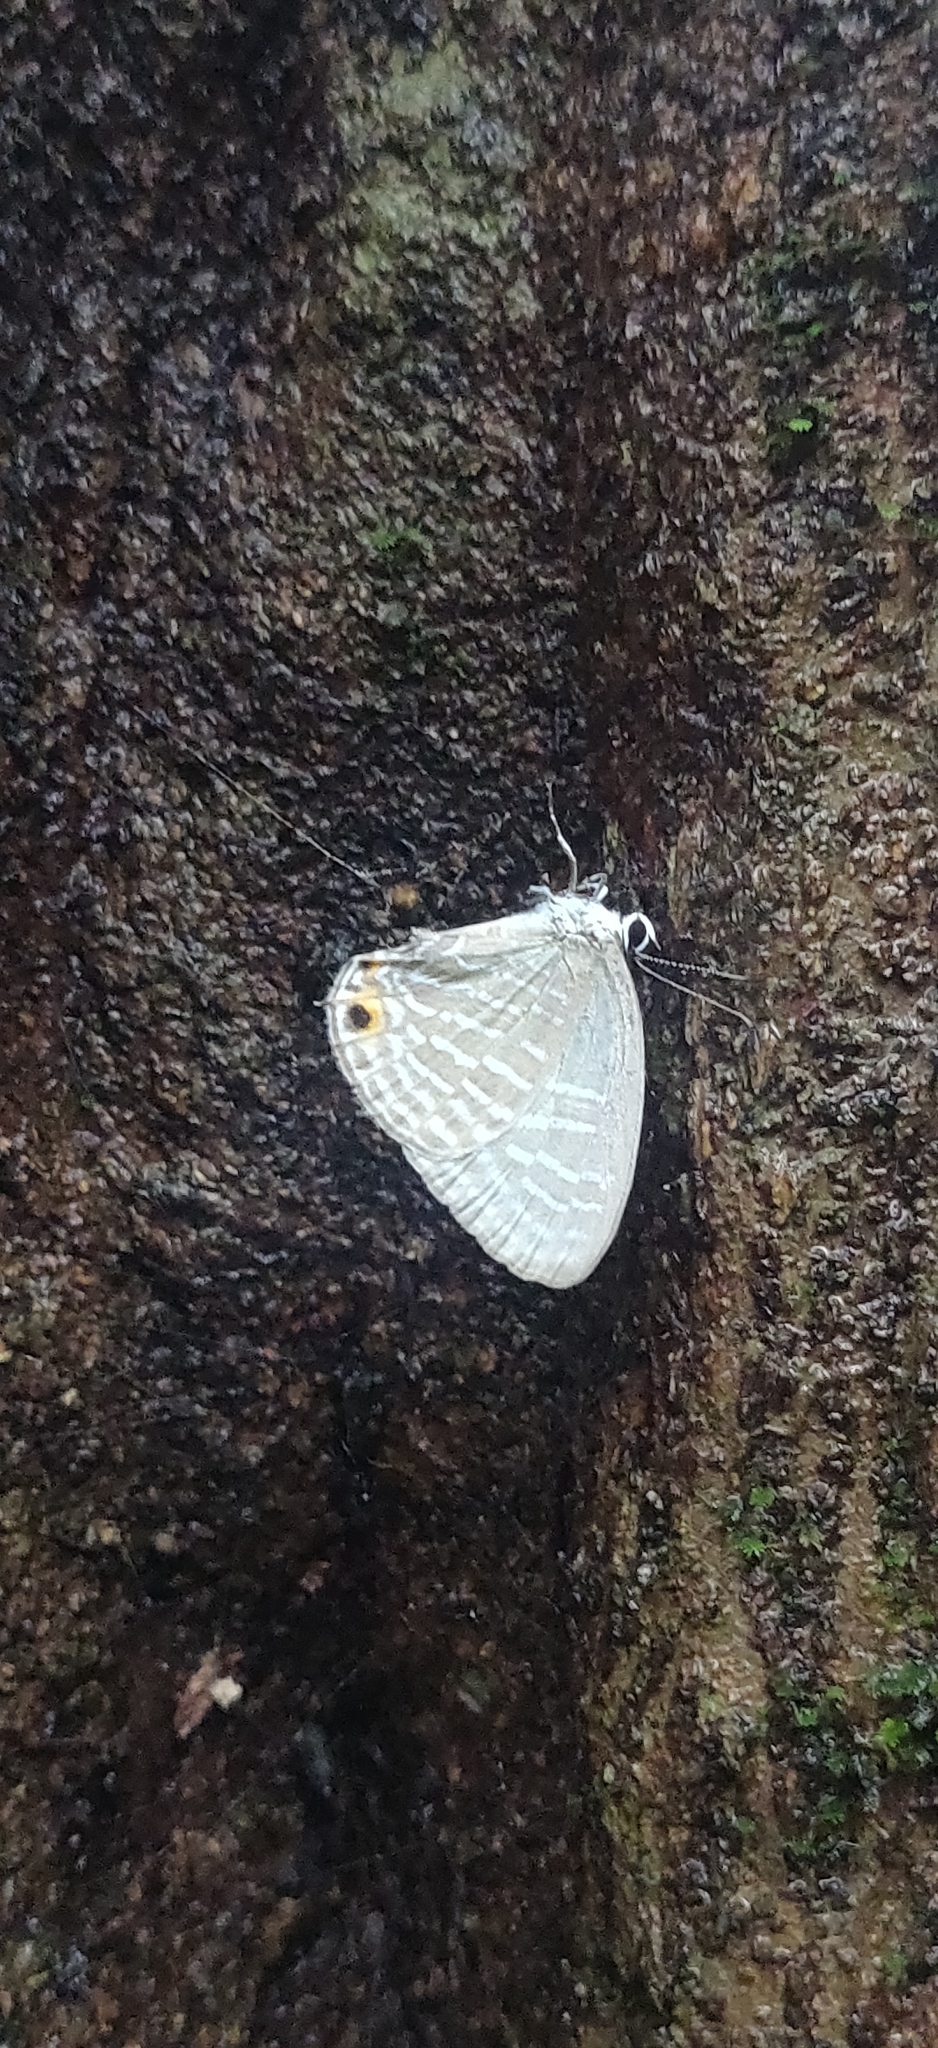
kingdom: Animalia
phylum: Arthropoda
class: Insecta
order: Lepidoptera
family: Lycaenidae
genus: Jamides
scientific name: Jamides alecto
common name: Metallic cerulean
